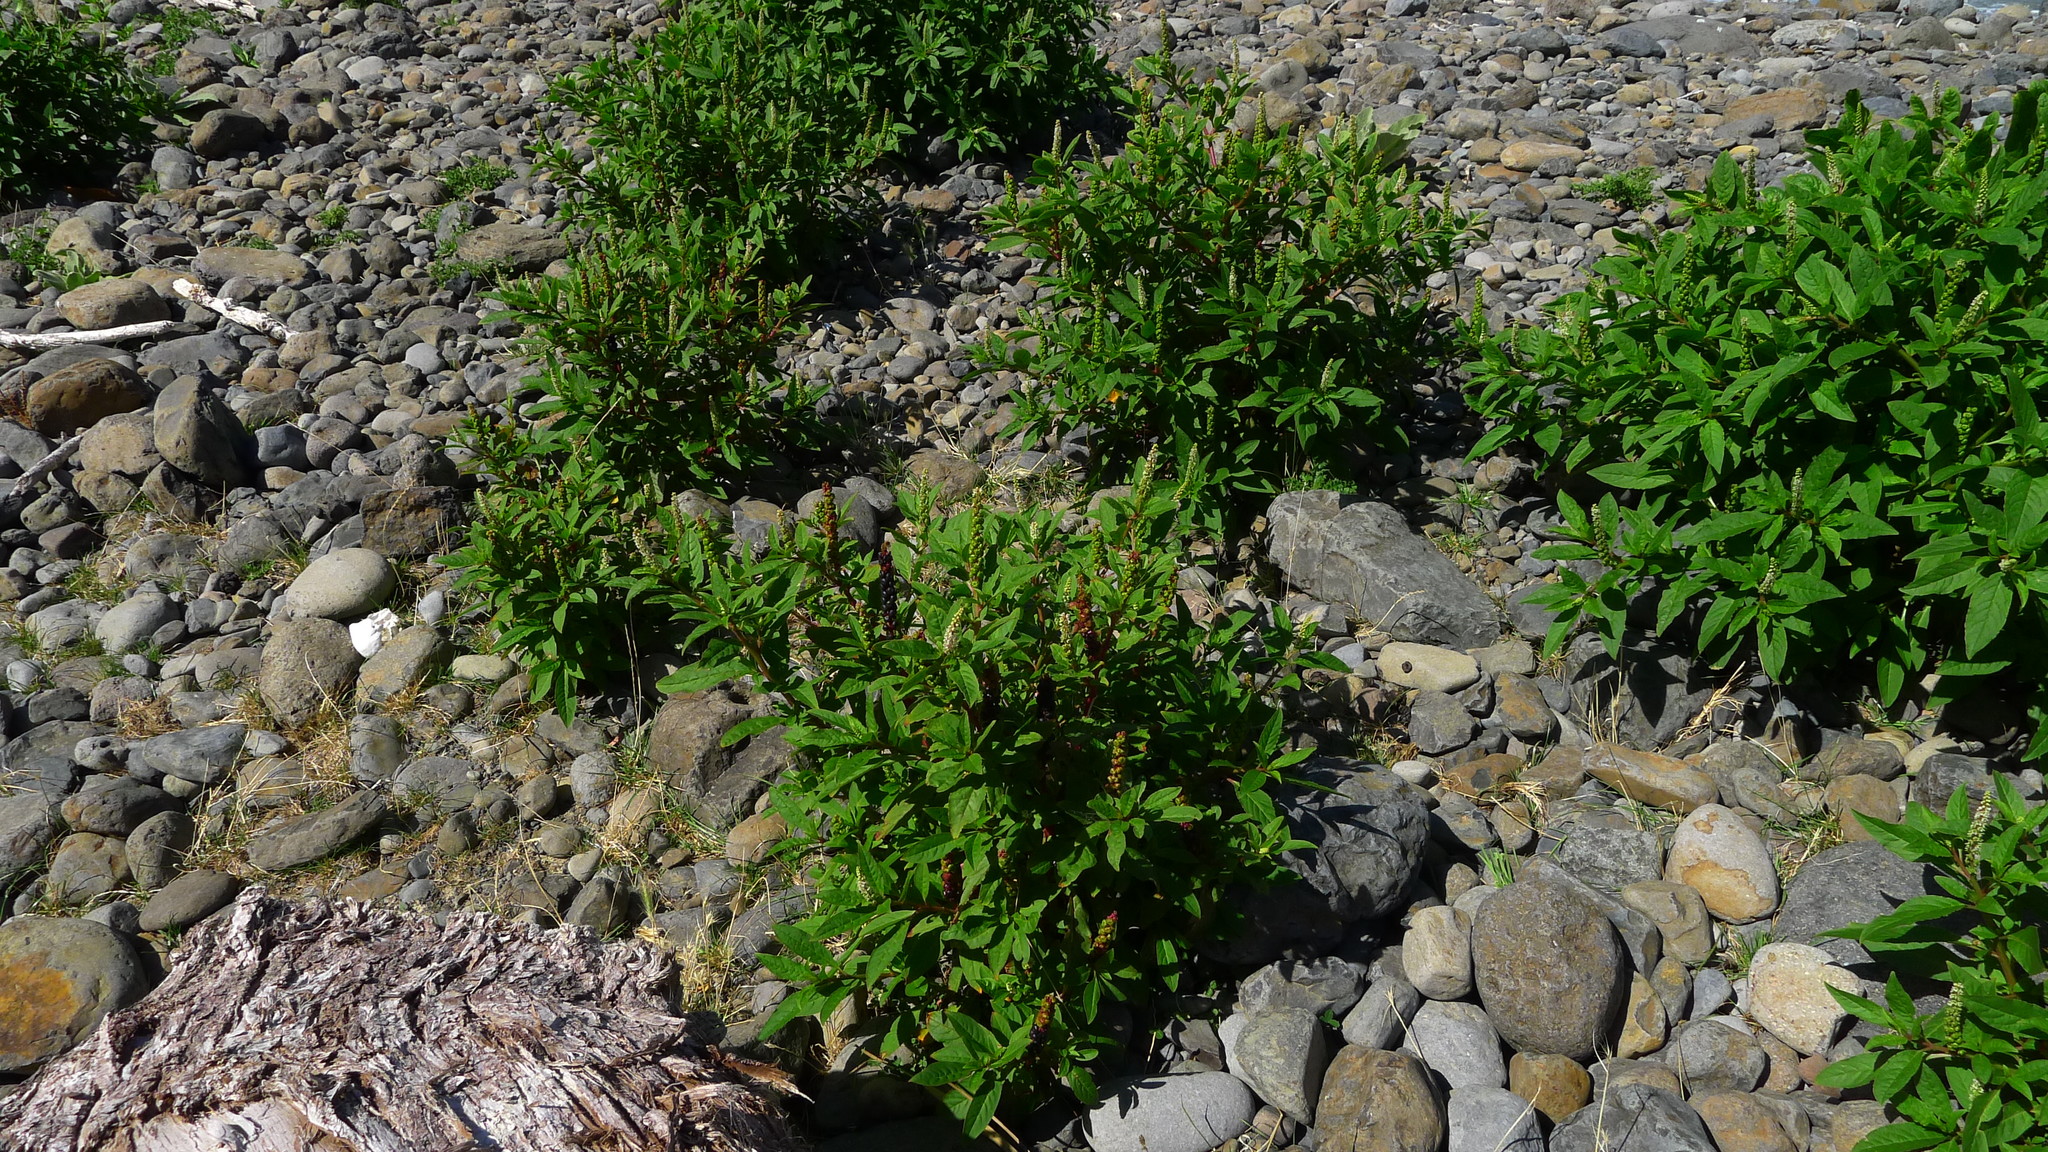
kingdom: Plantae
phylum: Tracheophyta
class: Magnoliopsida
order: Caryophyllales
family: Phytolaccaceae
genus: Phytolacca
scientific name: Phytolacca icosandra
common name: Button pokeweed
